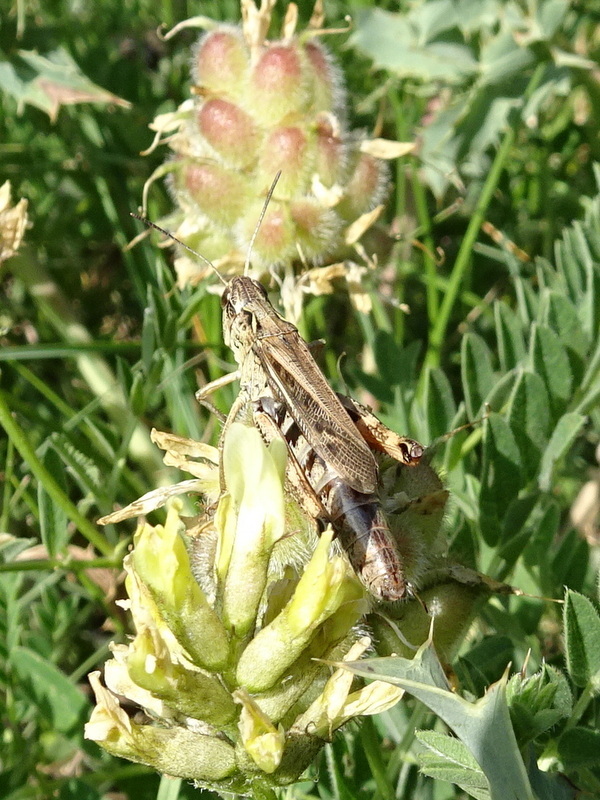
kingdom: Animalia
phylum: Arthropoda
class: Insecta
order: Orthoptera
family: Acrididae
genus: Gomphocerus
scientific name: Gomphocerus sibiricus
